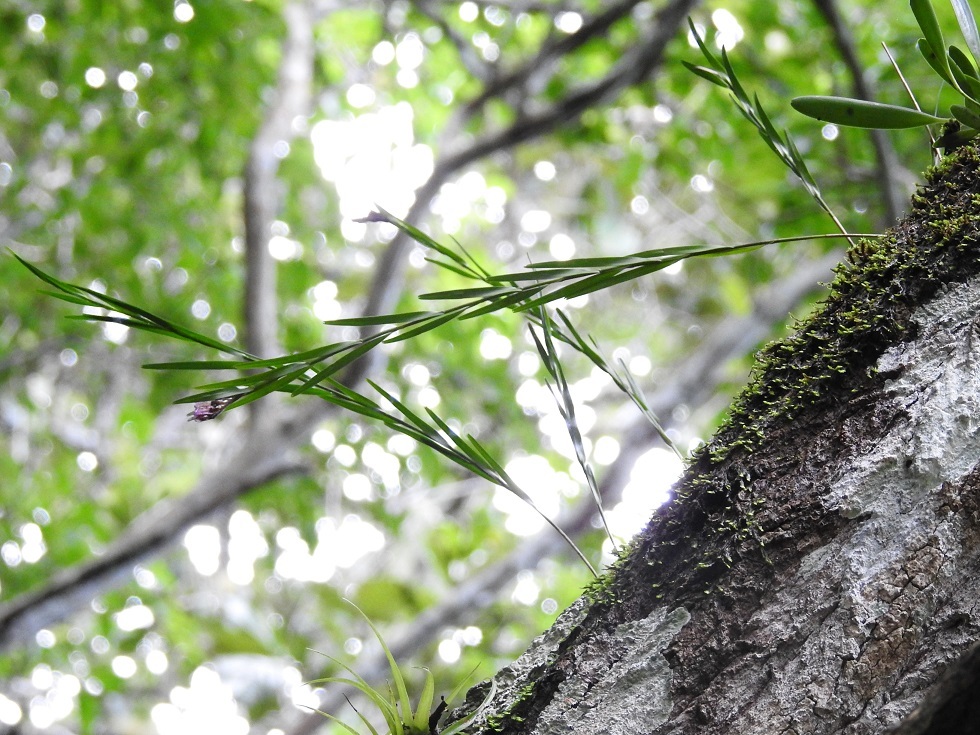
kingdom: Plantae
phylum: Tracheophyta
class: Liliopsida
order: Asparagales
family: Orchidaceae
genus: Isochilus
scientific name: Isochilus major
